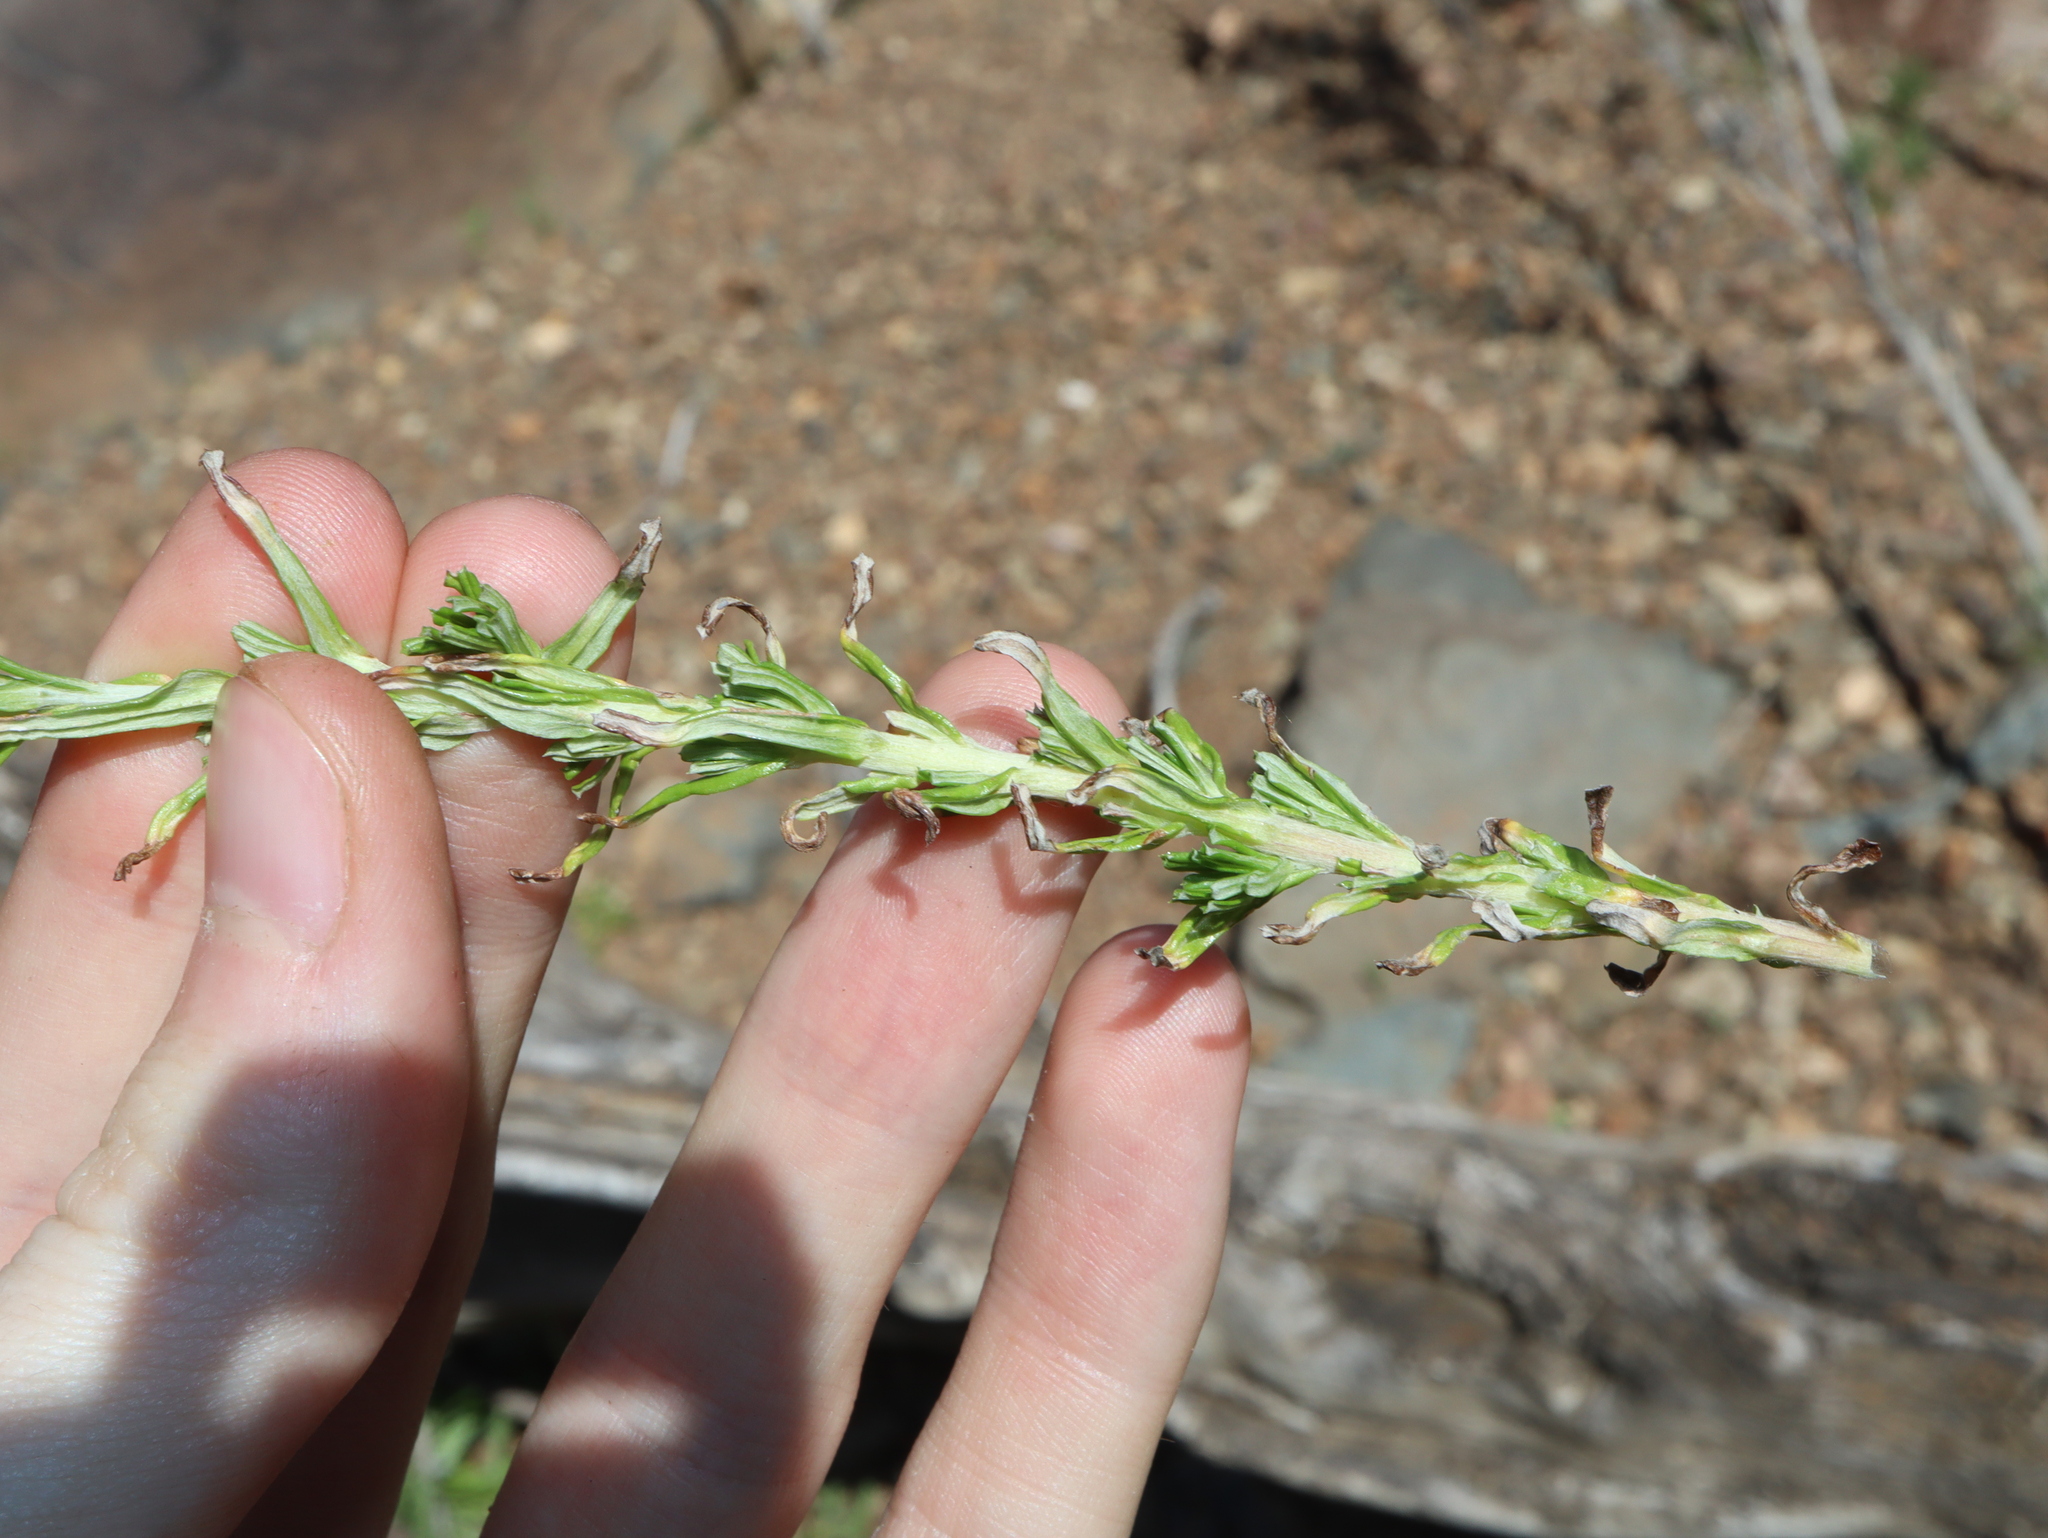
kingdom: Plantae
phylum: Tracheophyta
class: Magnoliopsida
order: Asterales
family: Asteraceae
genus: Facelis
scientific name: Facelis retusa
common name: Annual trampweed
